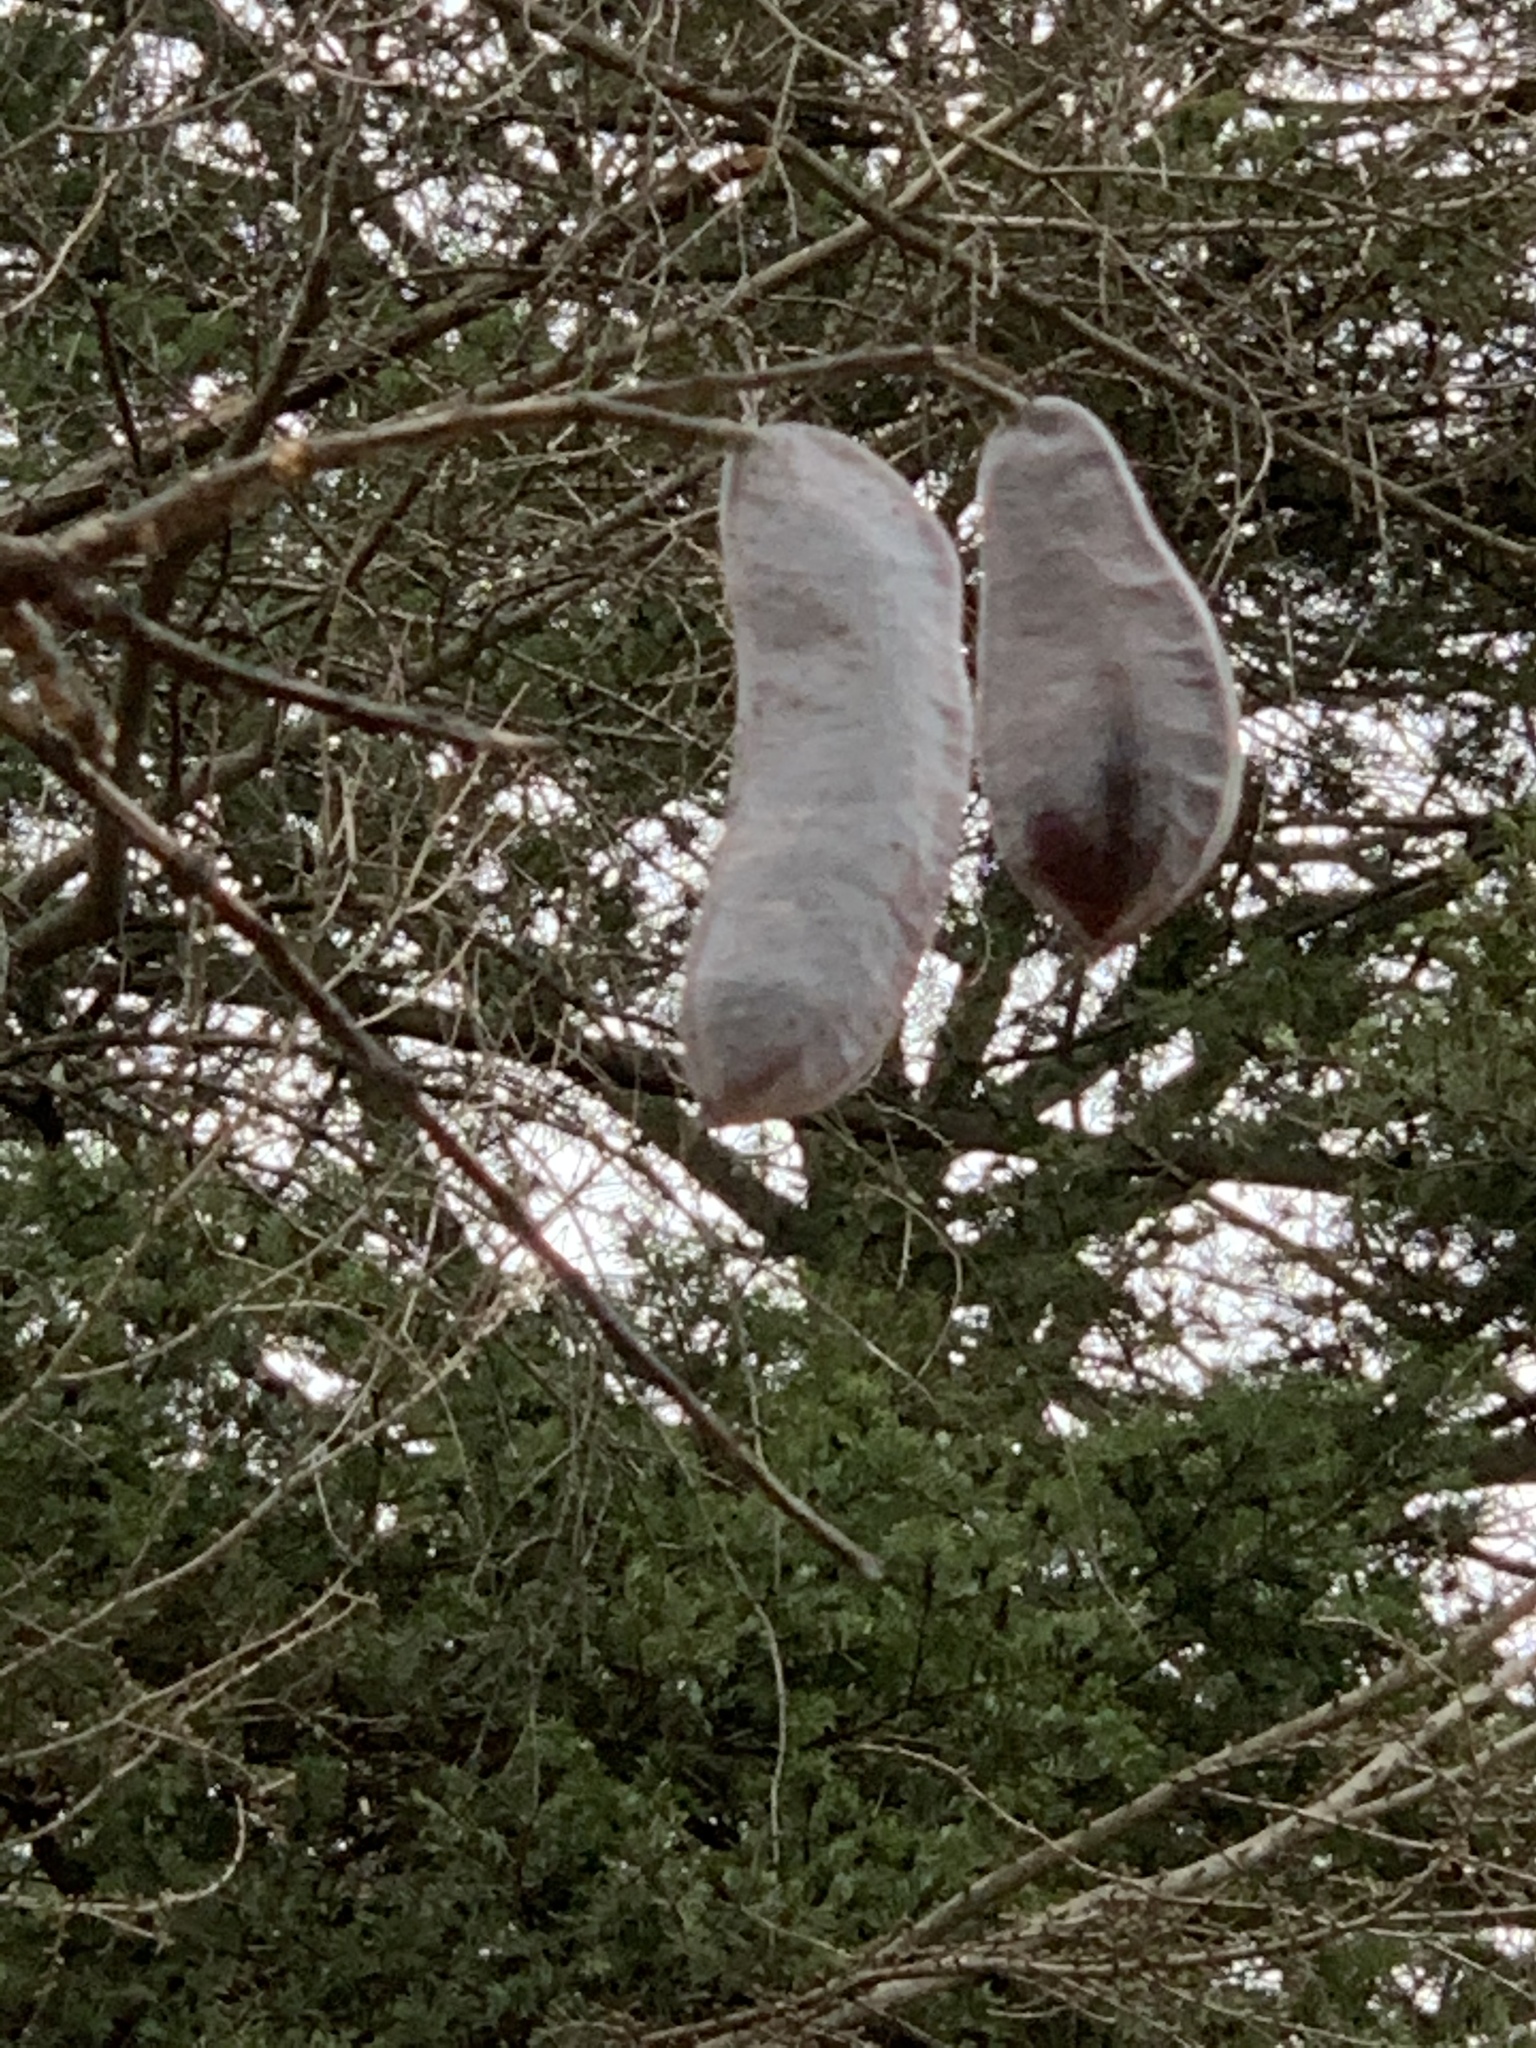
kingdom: Plantae
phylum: Tracheophyta
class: Magnoliopsida
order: Fabales
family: Fabaceae
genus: Gymnocladus
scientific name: Gymnocladus dioicus
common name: Kentucky coffee-tree
